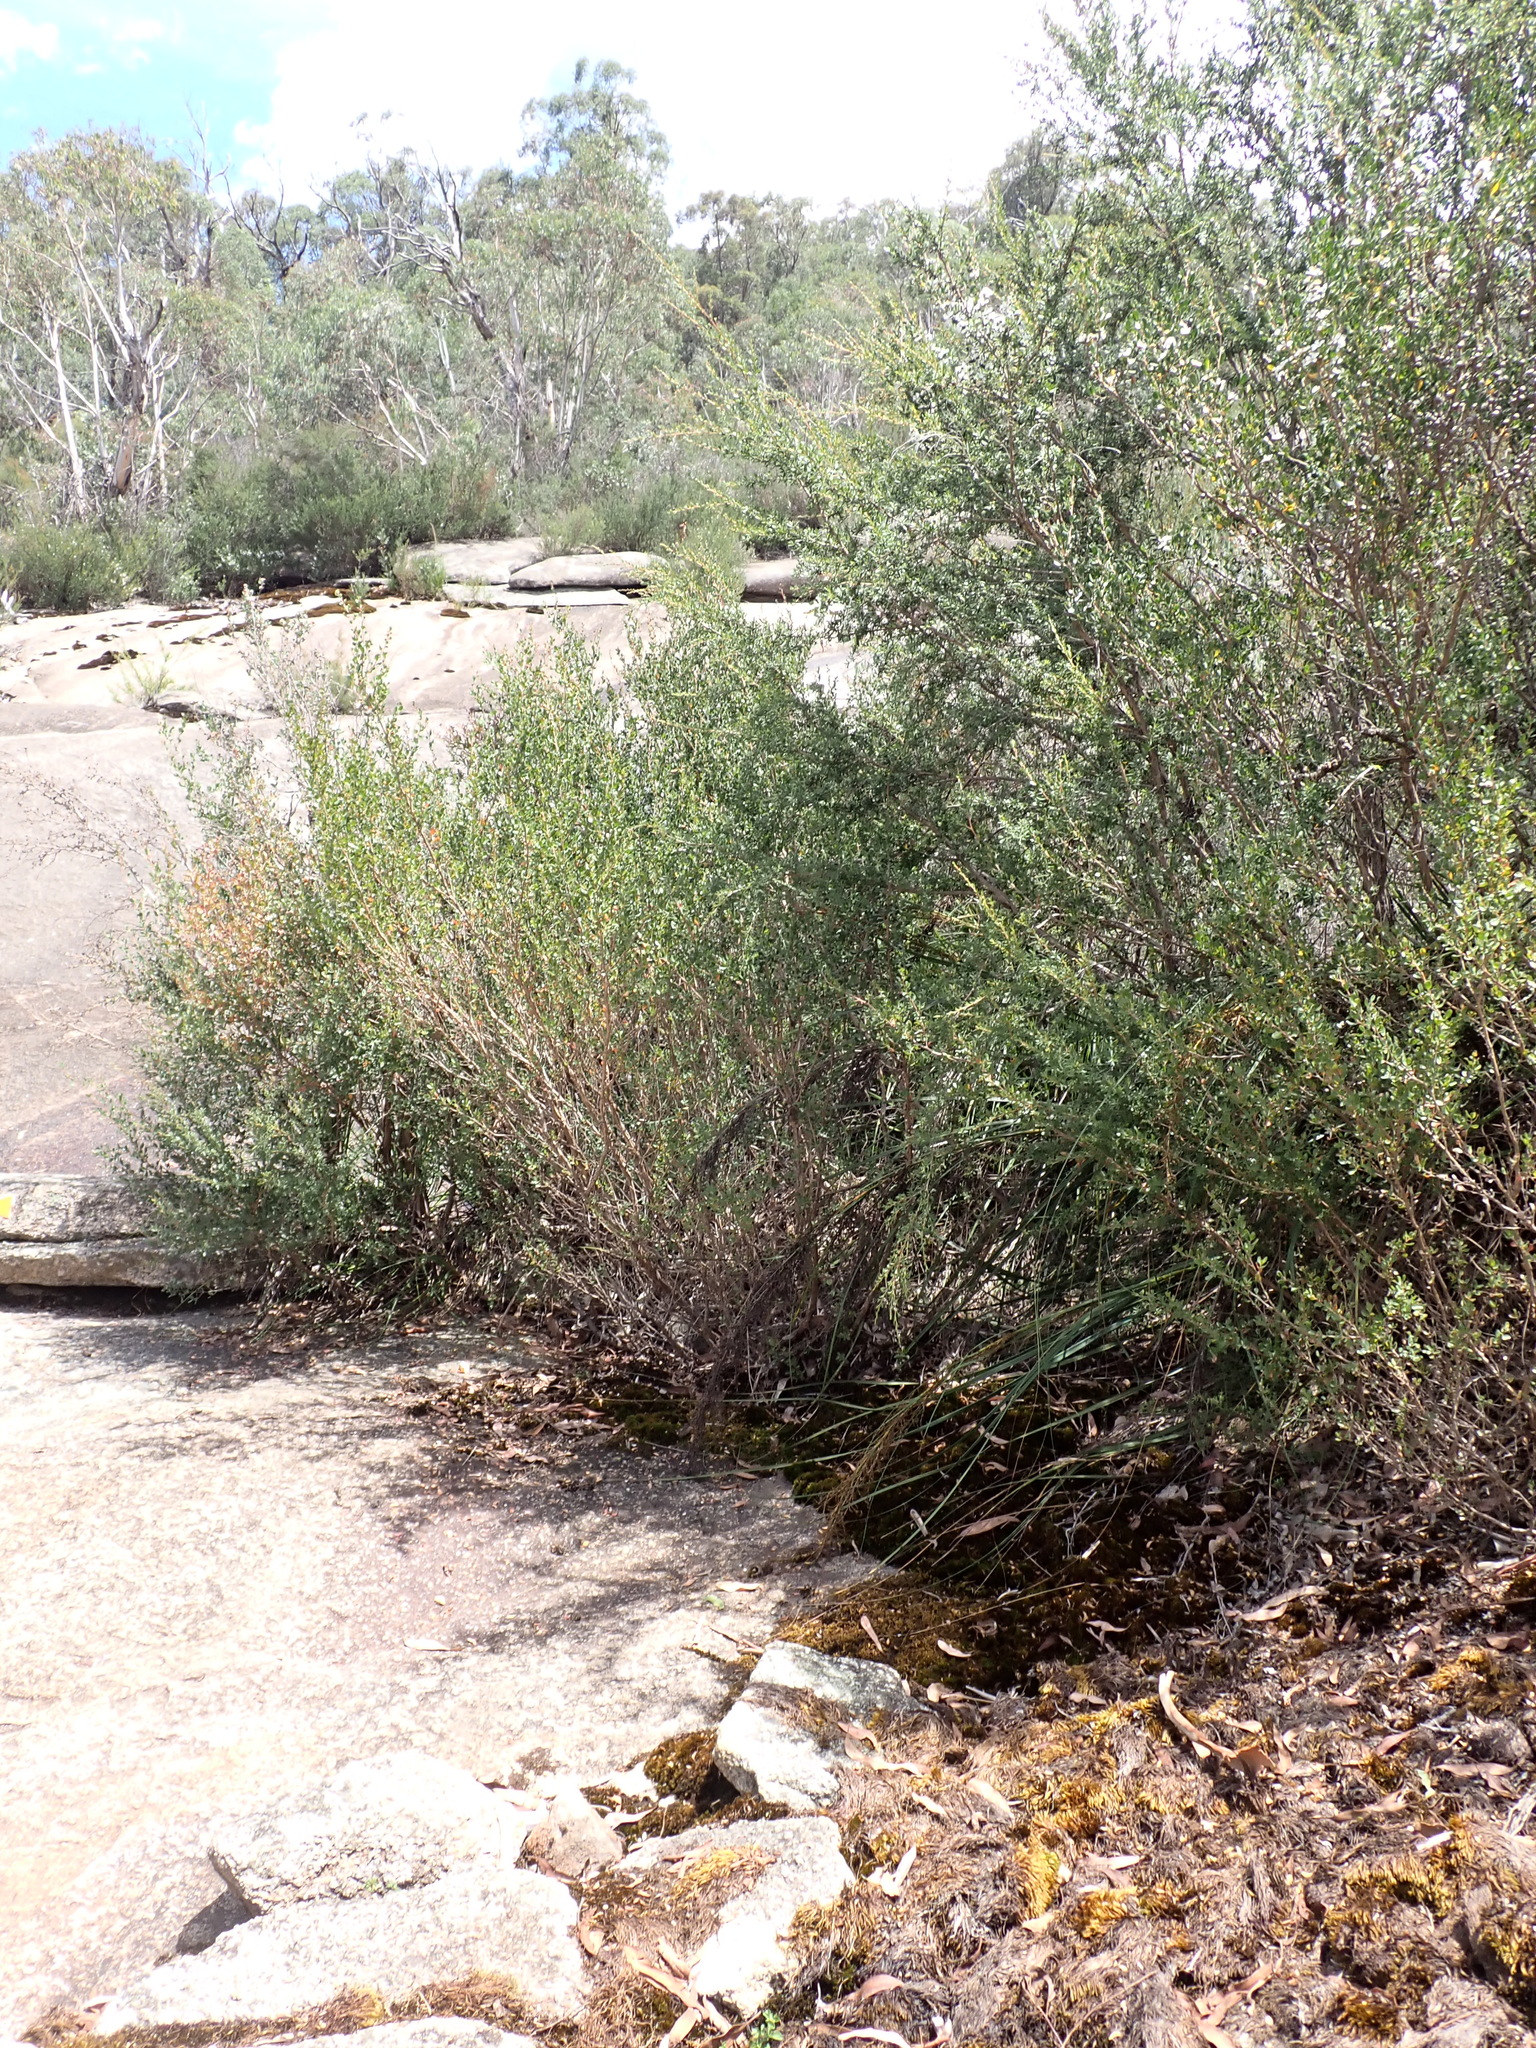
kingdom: Plantae
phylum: Bryophyta
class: Bryopsida
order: Hedwigiales
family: Hedwigiaceae
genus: Rhacocarpus
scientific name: Rhacocarpus purpurascens
